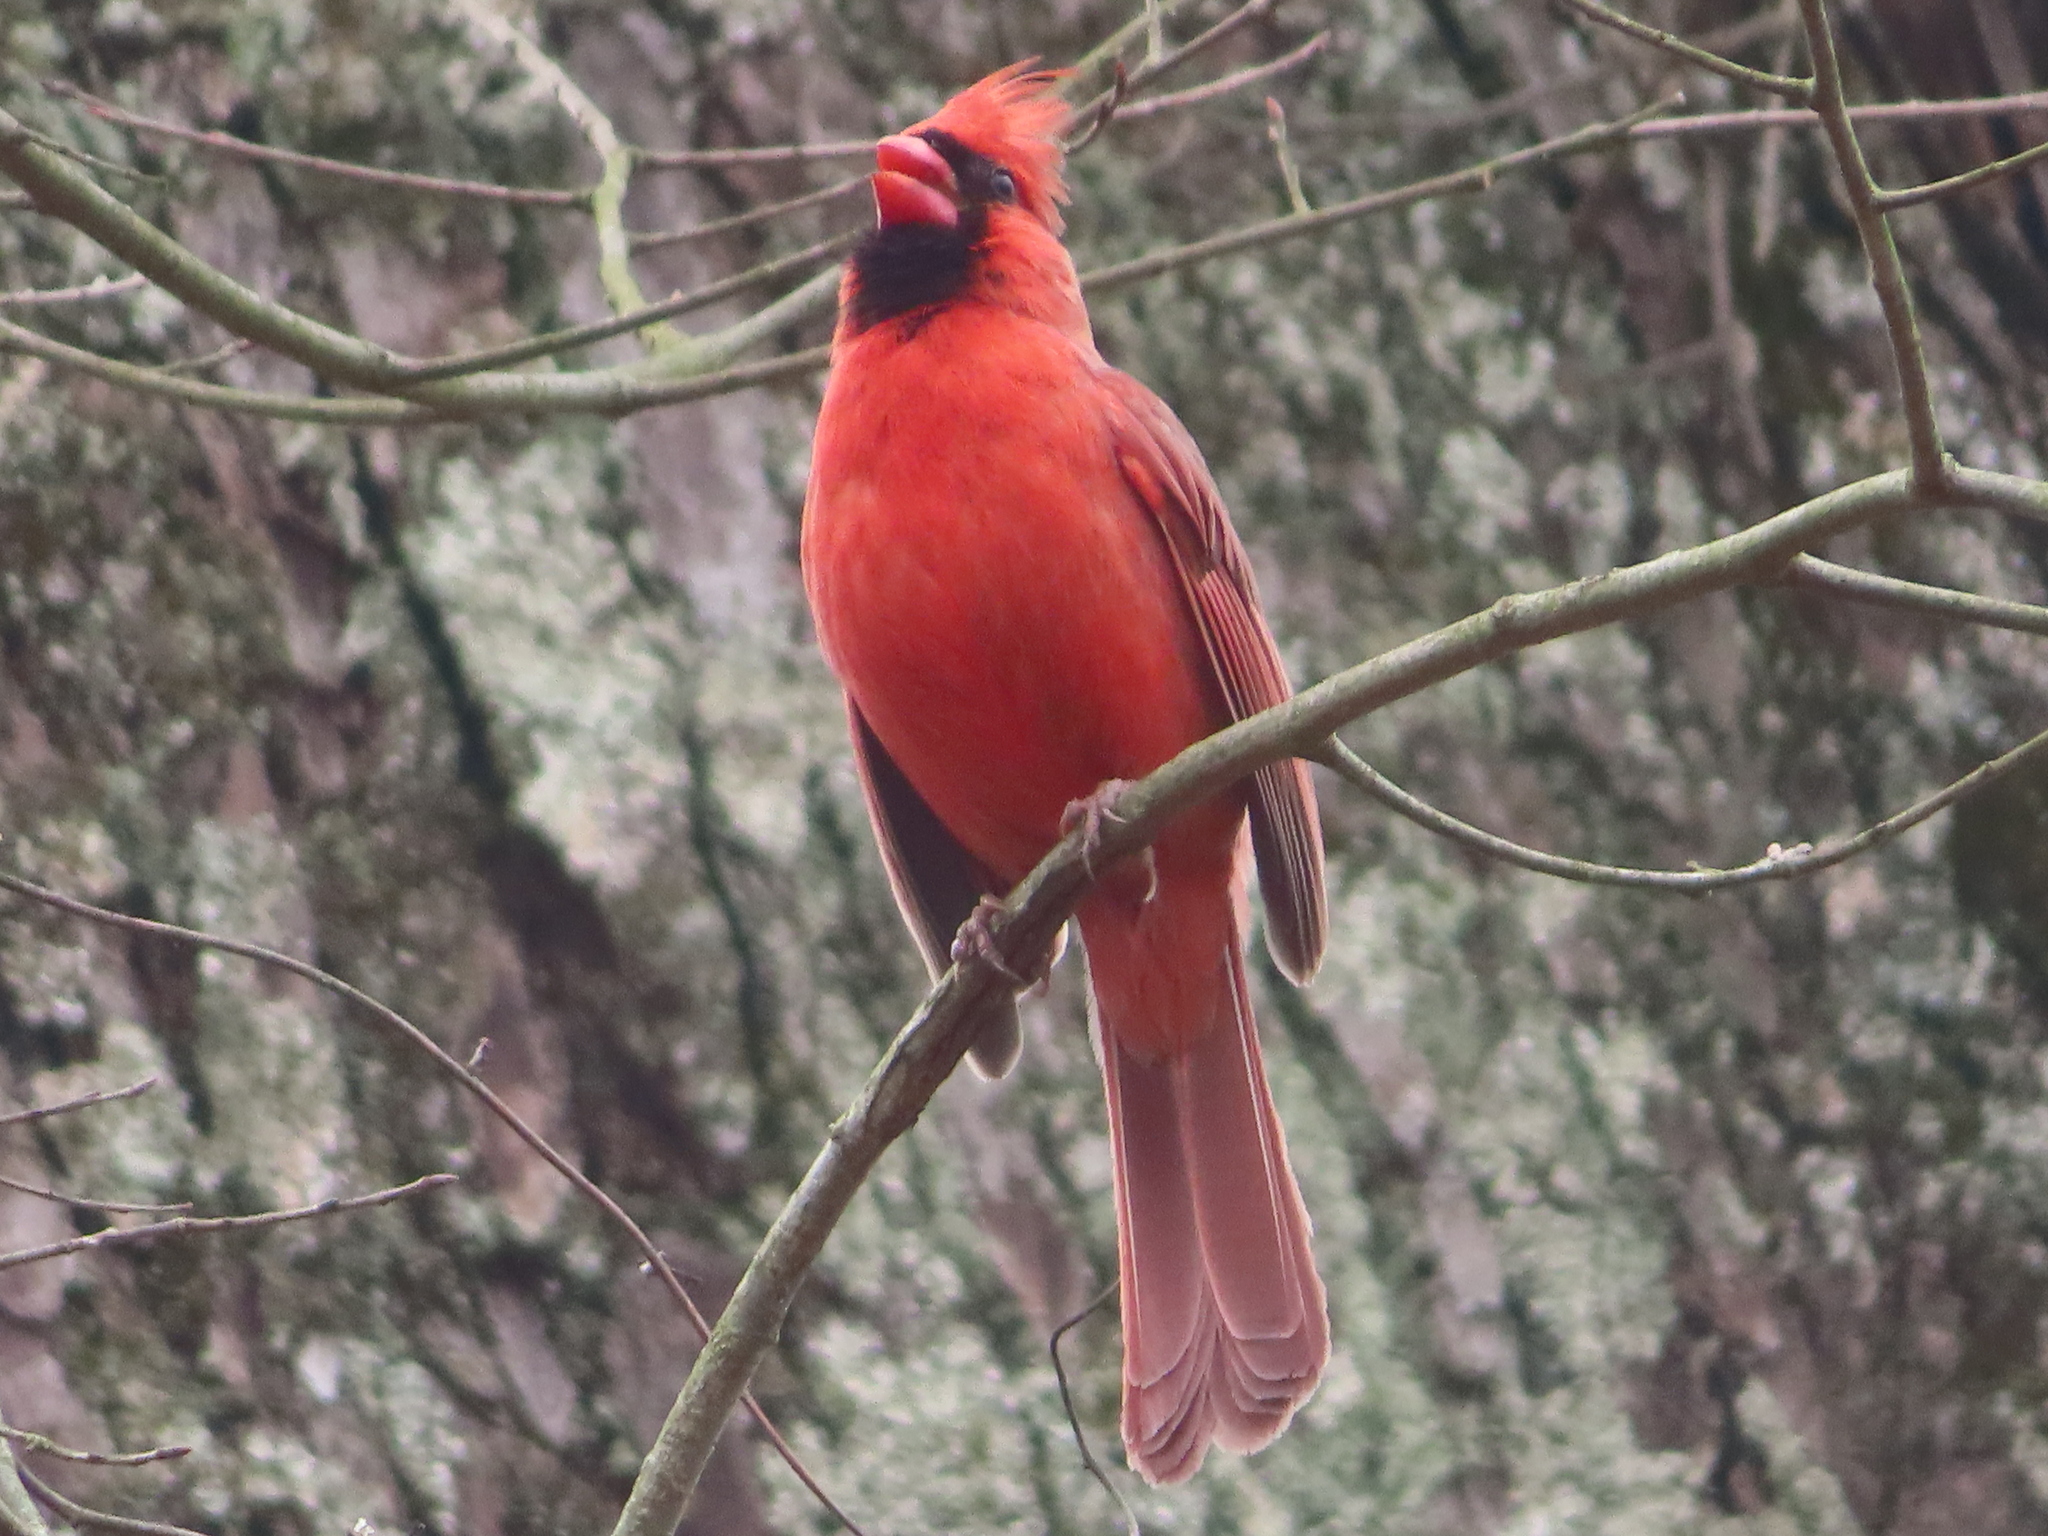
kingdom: Animalia
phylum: Chordata
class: Aves
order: Passeriformes
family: Cardinalidae
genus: Cardinalis
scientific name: Cardinalis cardinalis
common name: Northern cardinal
